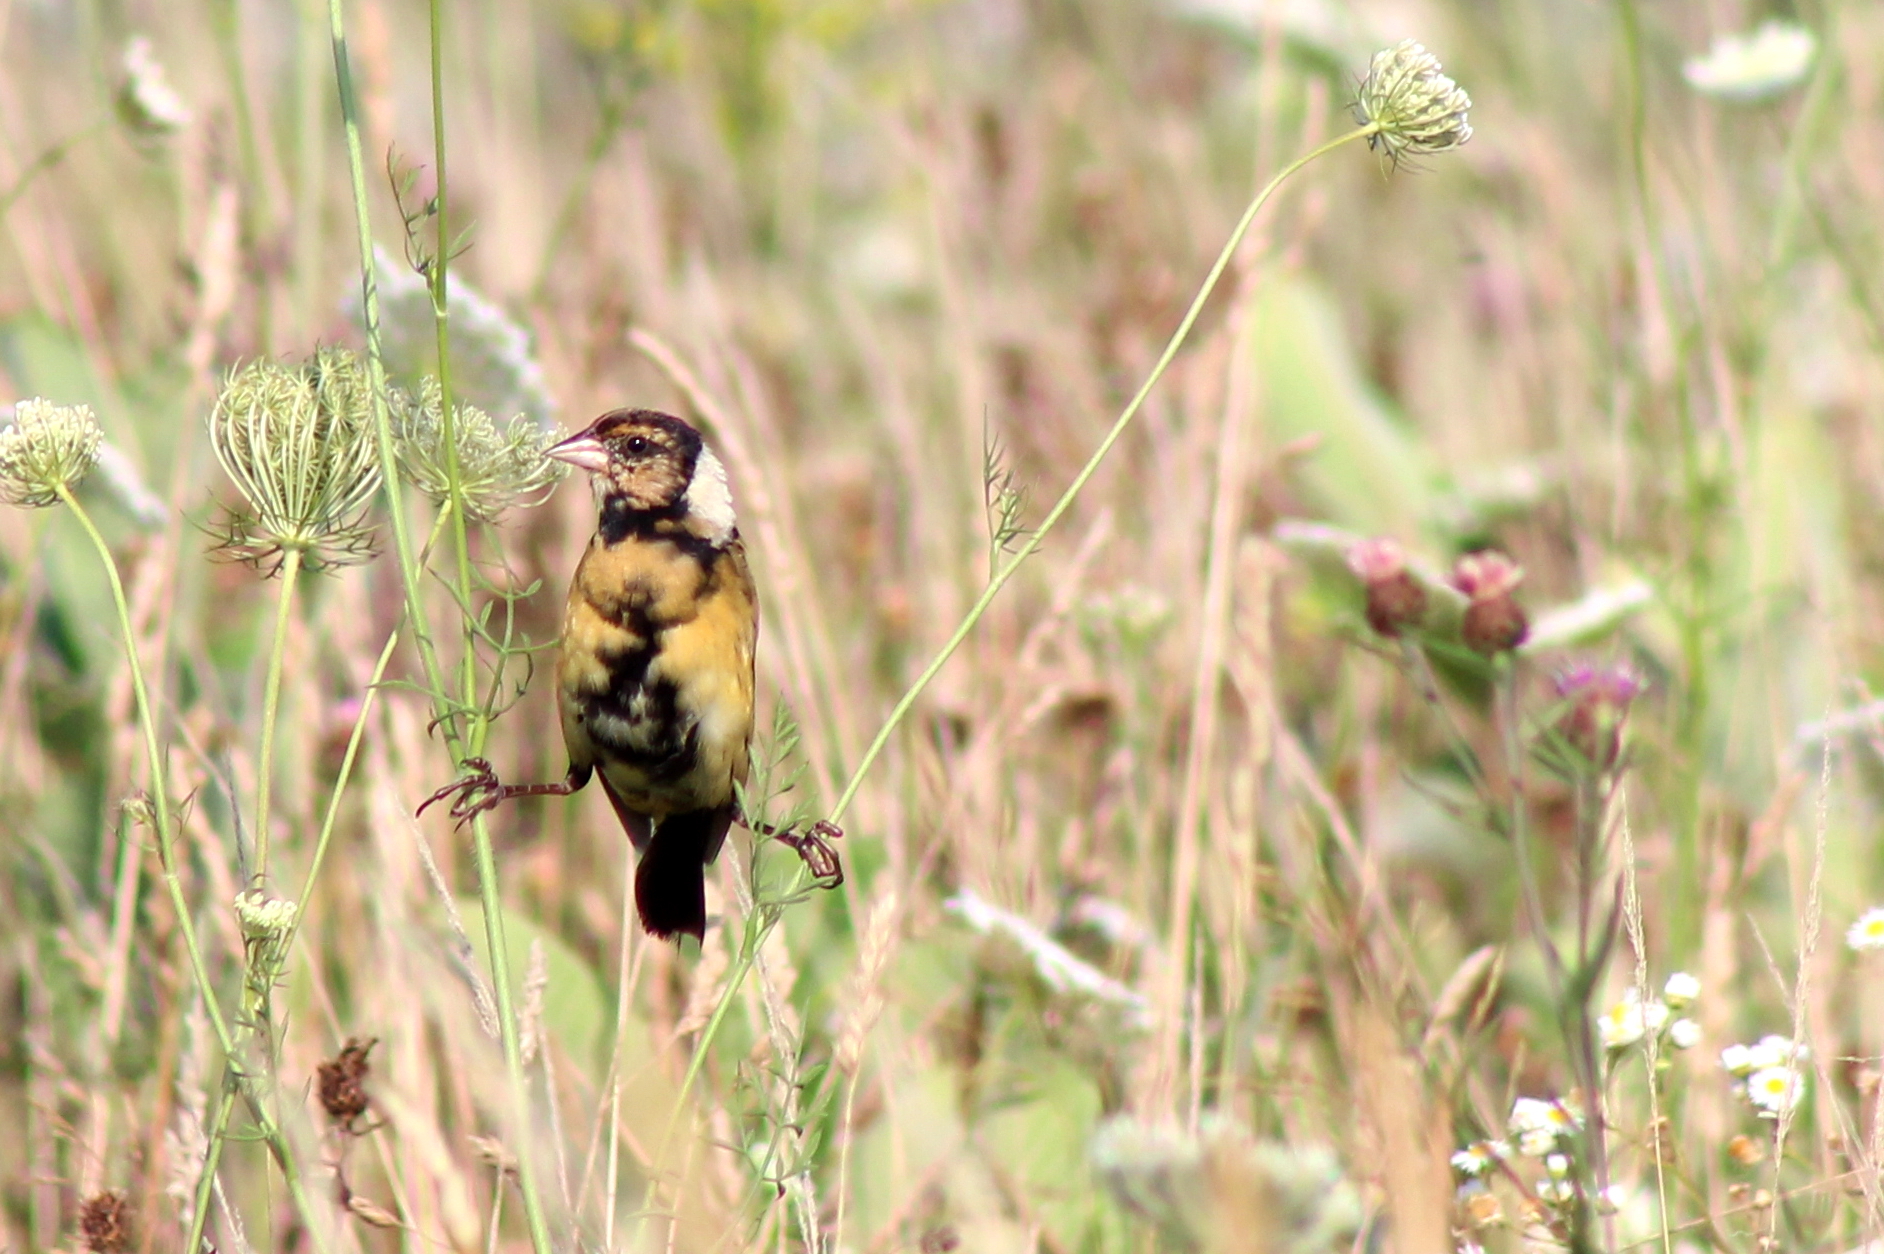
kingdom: Animalia
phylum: Chordata
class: Aves
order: Passeriformes
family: Icteridae
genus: Dolichonyx
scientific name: Dolichonyx oryzivorus
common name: Bobolink
